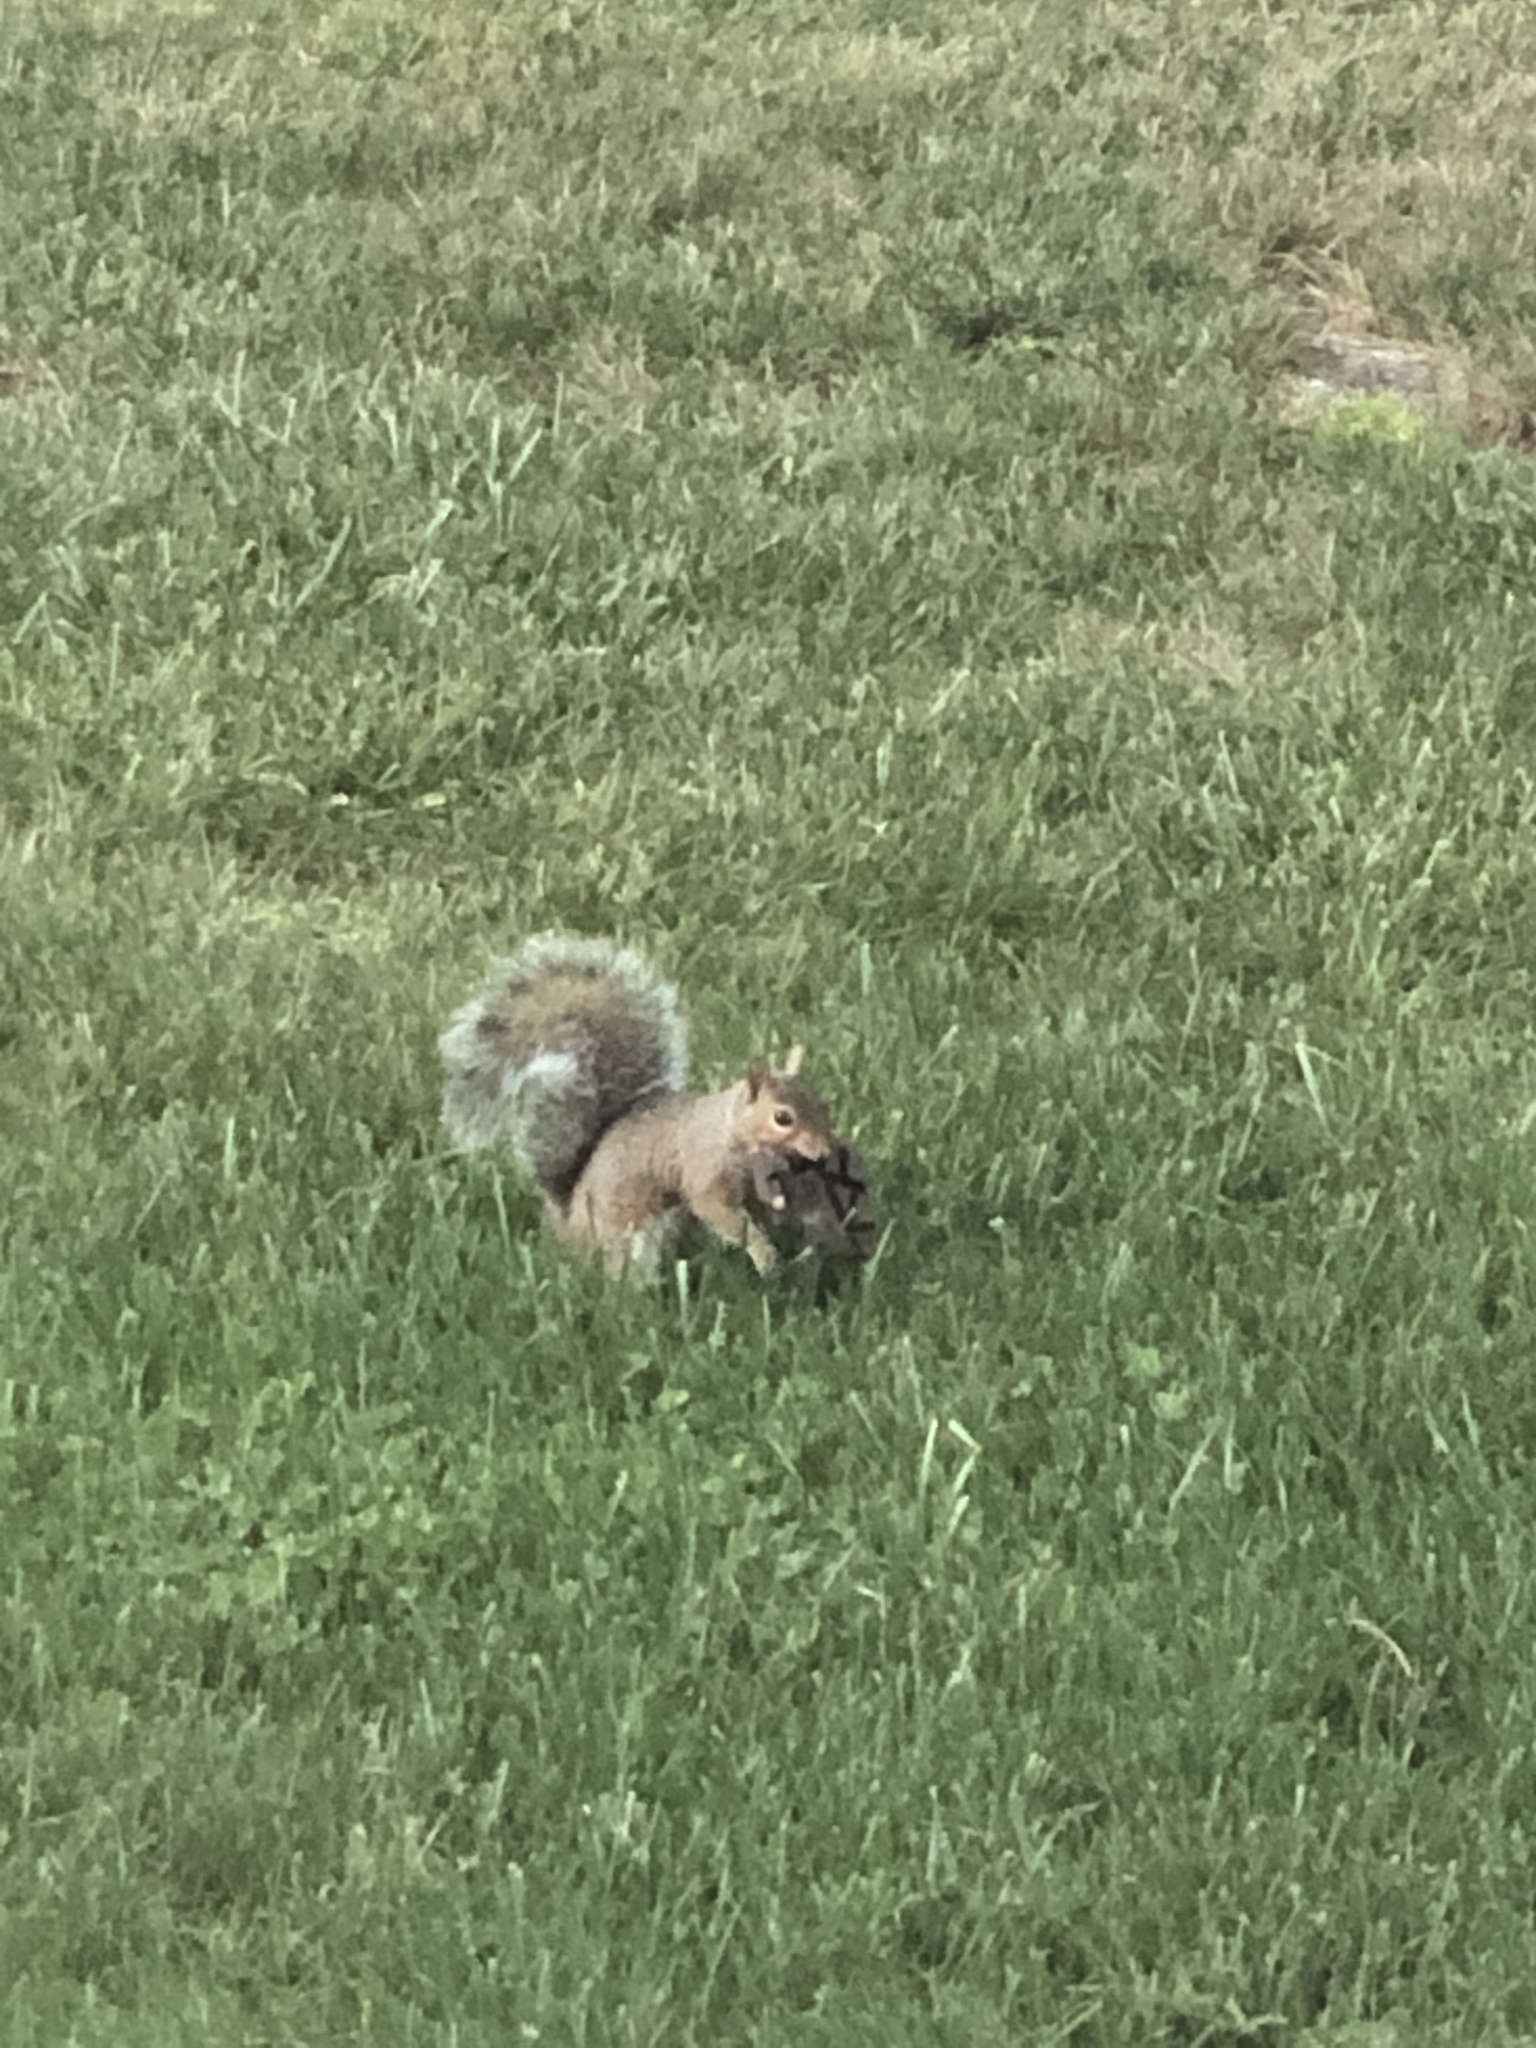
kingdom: Animalia
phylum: Chordata
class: Mammalia
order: Rodentia
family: Sciuridae
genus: Sciurus
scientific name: Sciurus carolinensis
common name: Eastern gray squirrel
